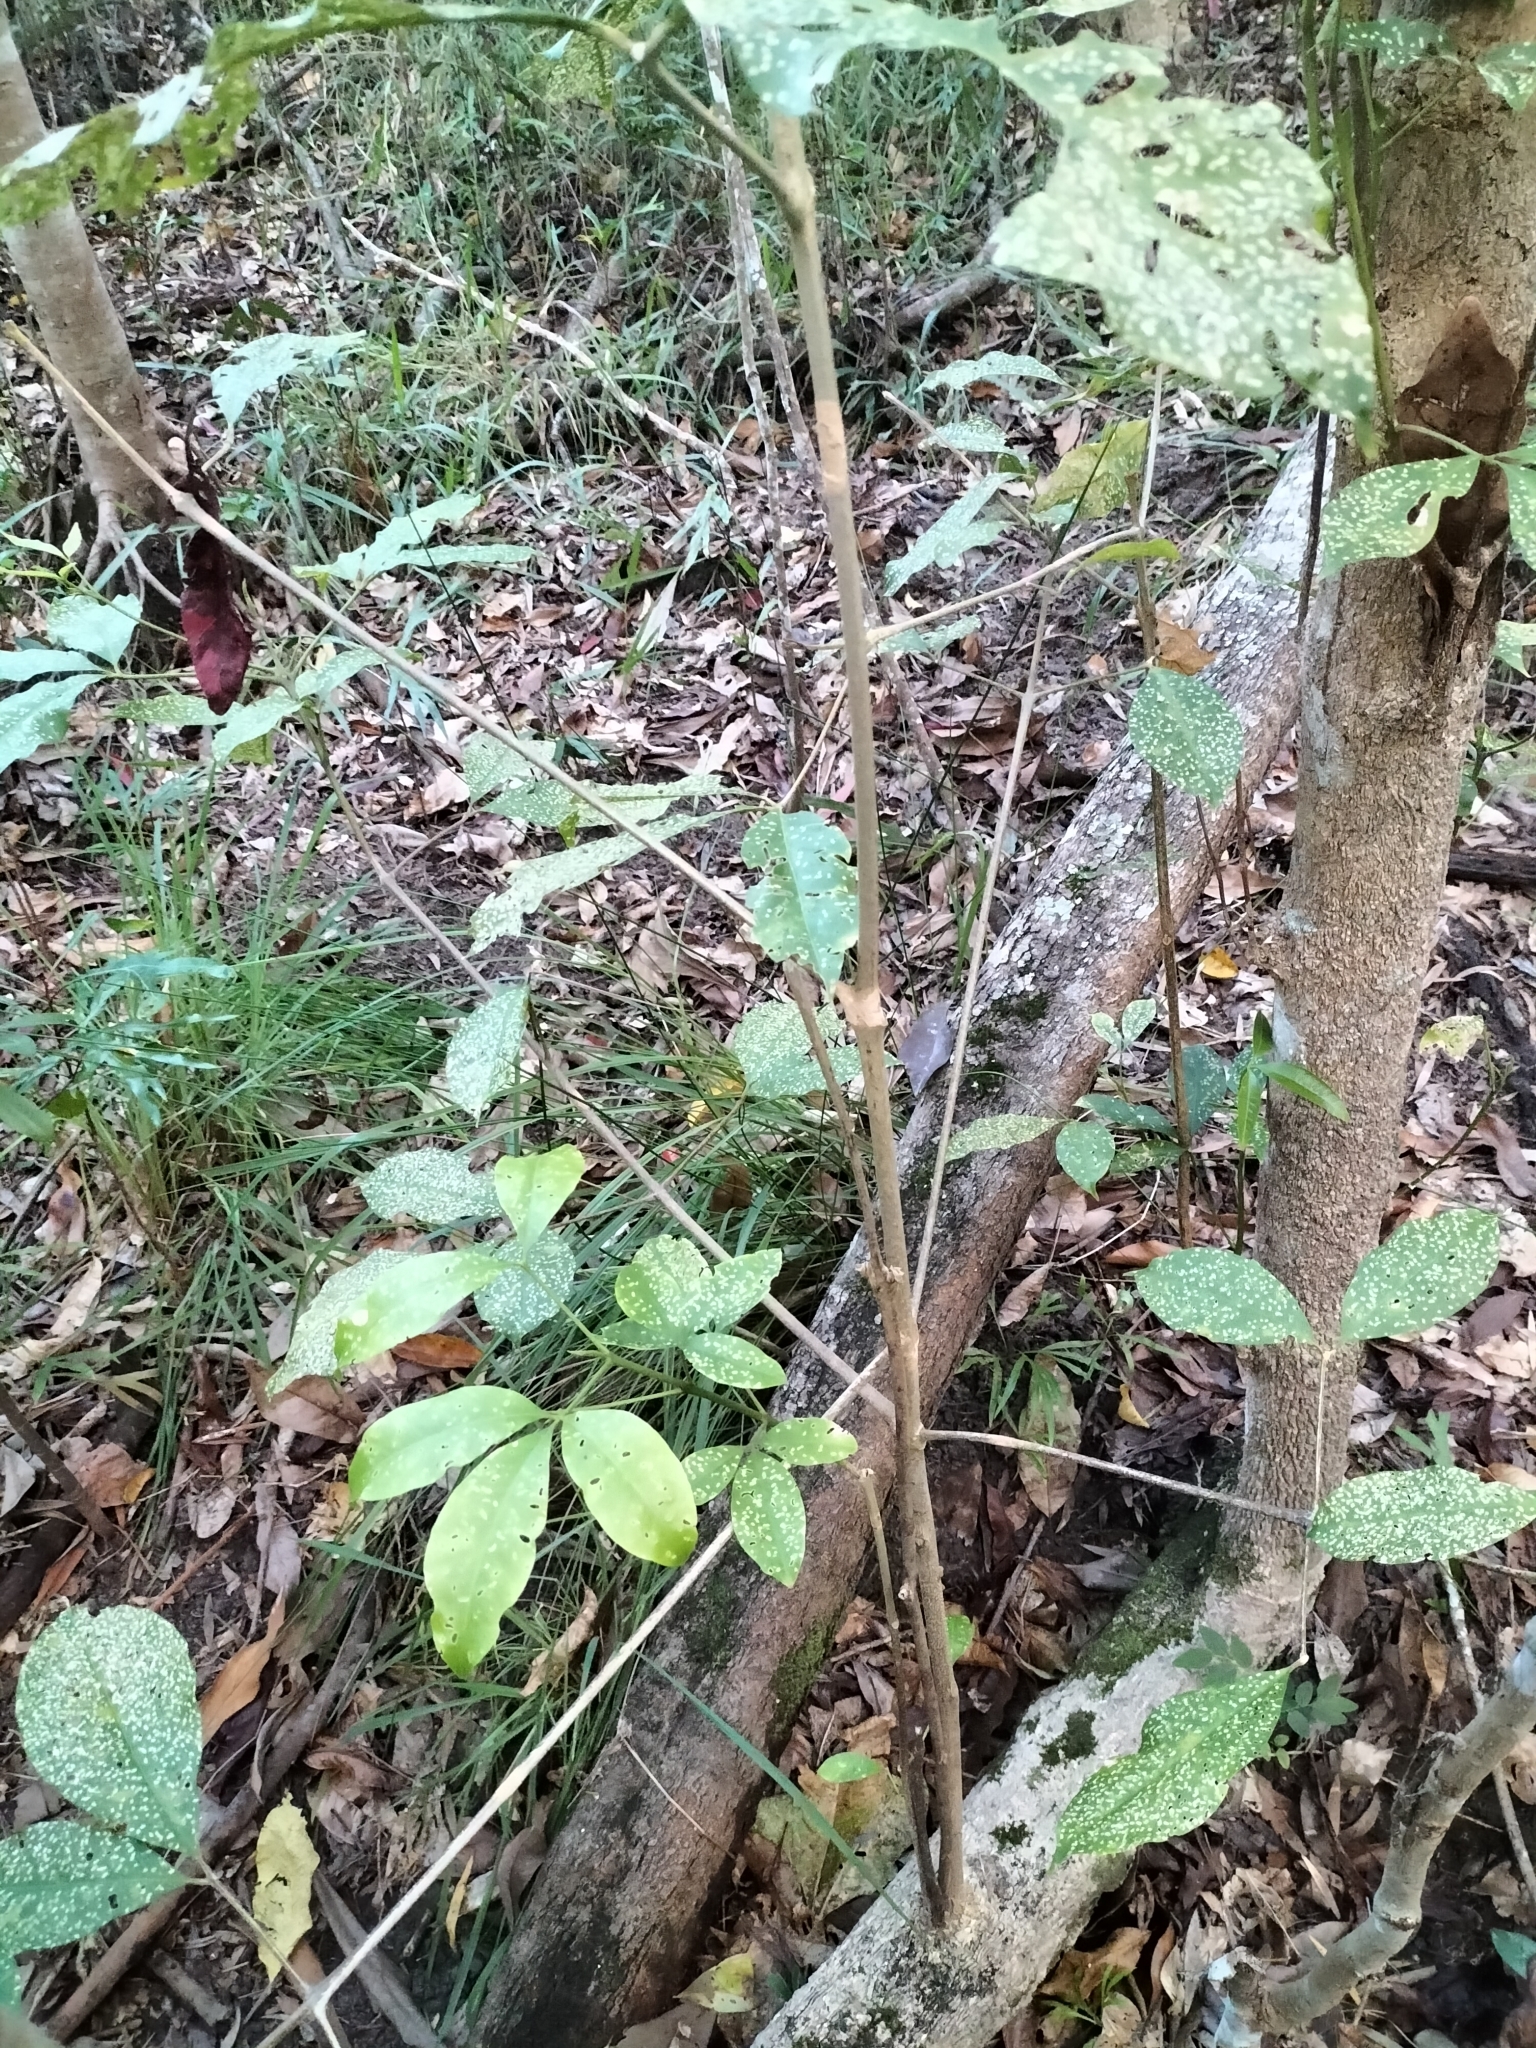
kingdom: Plantae
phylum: Tracheophyta
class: Magnoliopsida
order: Sapindales
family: Rutaceae
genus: Melicope
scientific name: Melicope elleryana
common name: Pink euodia
